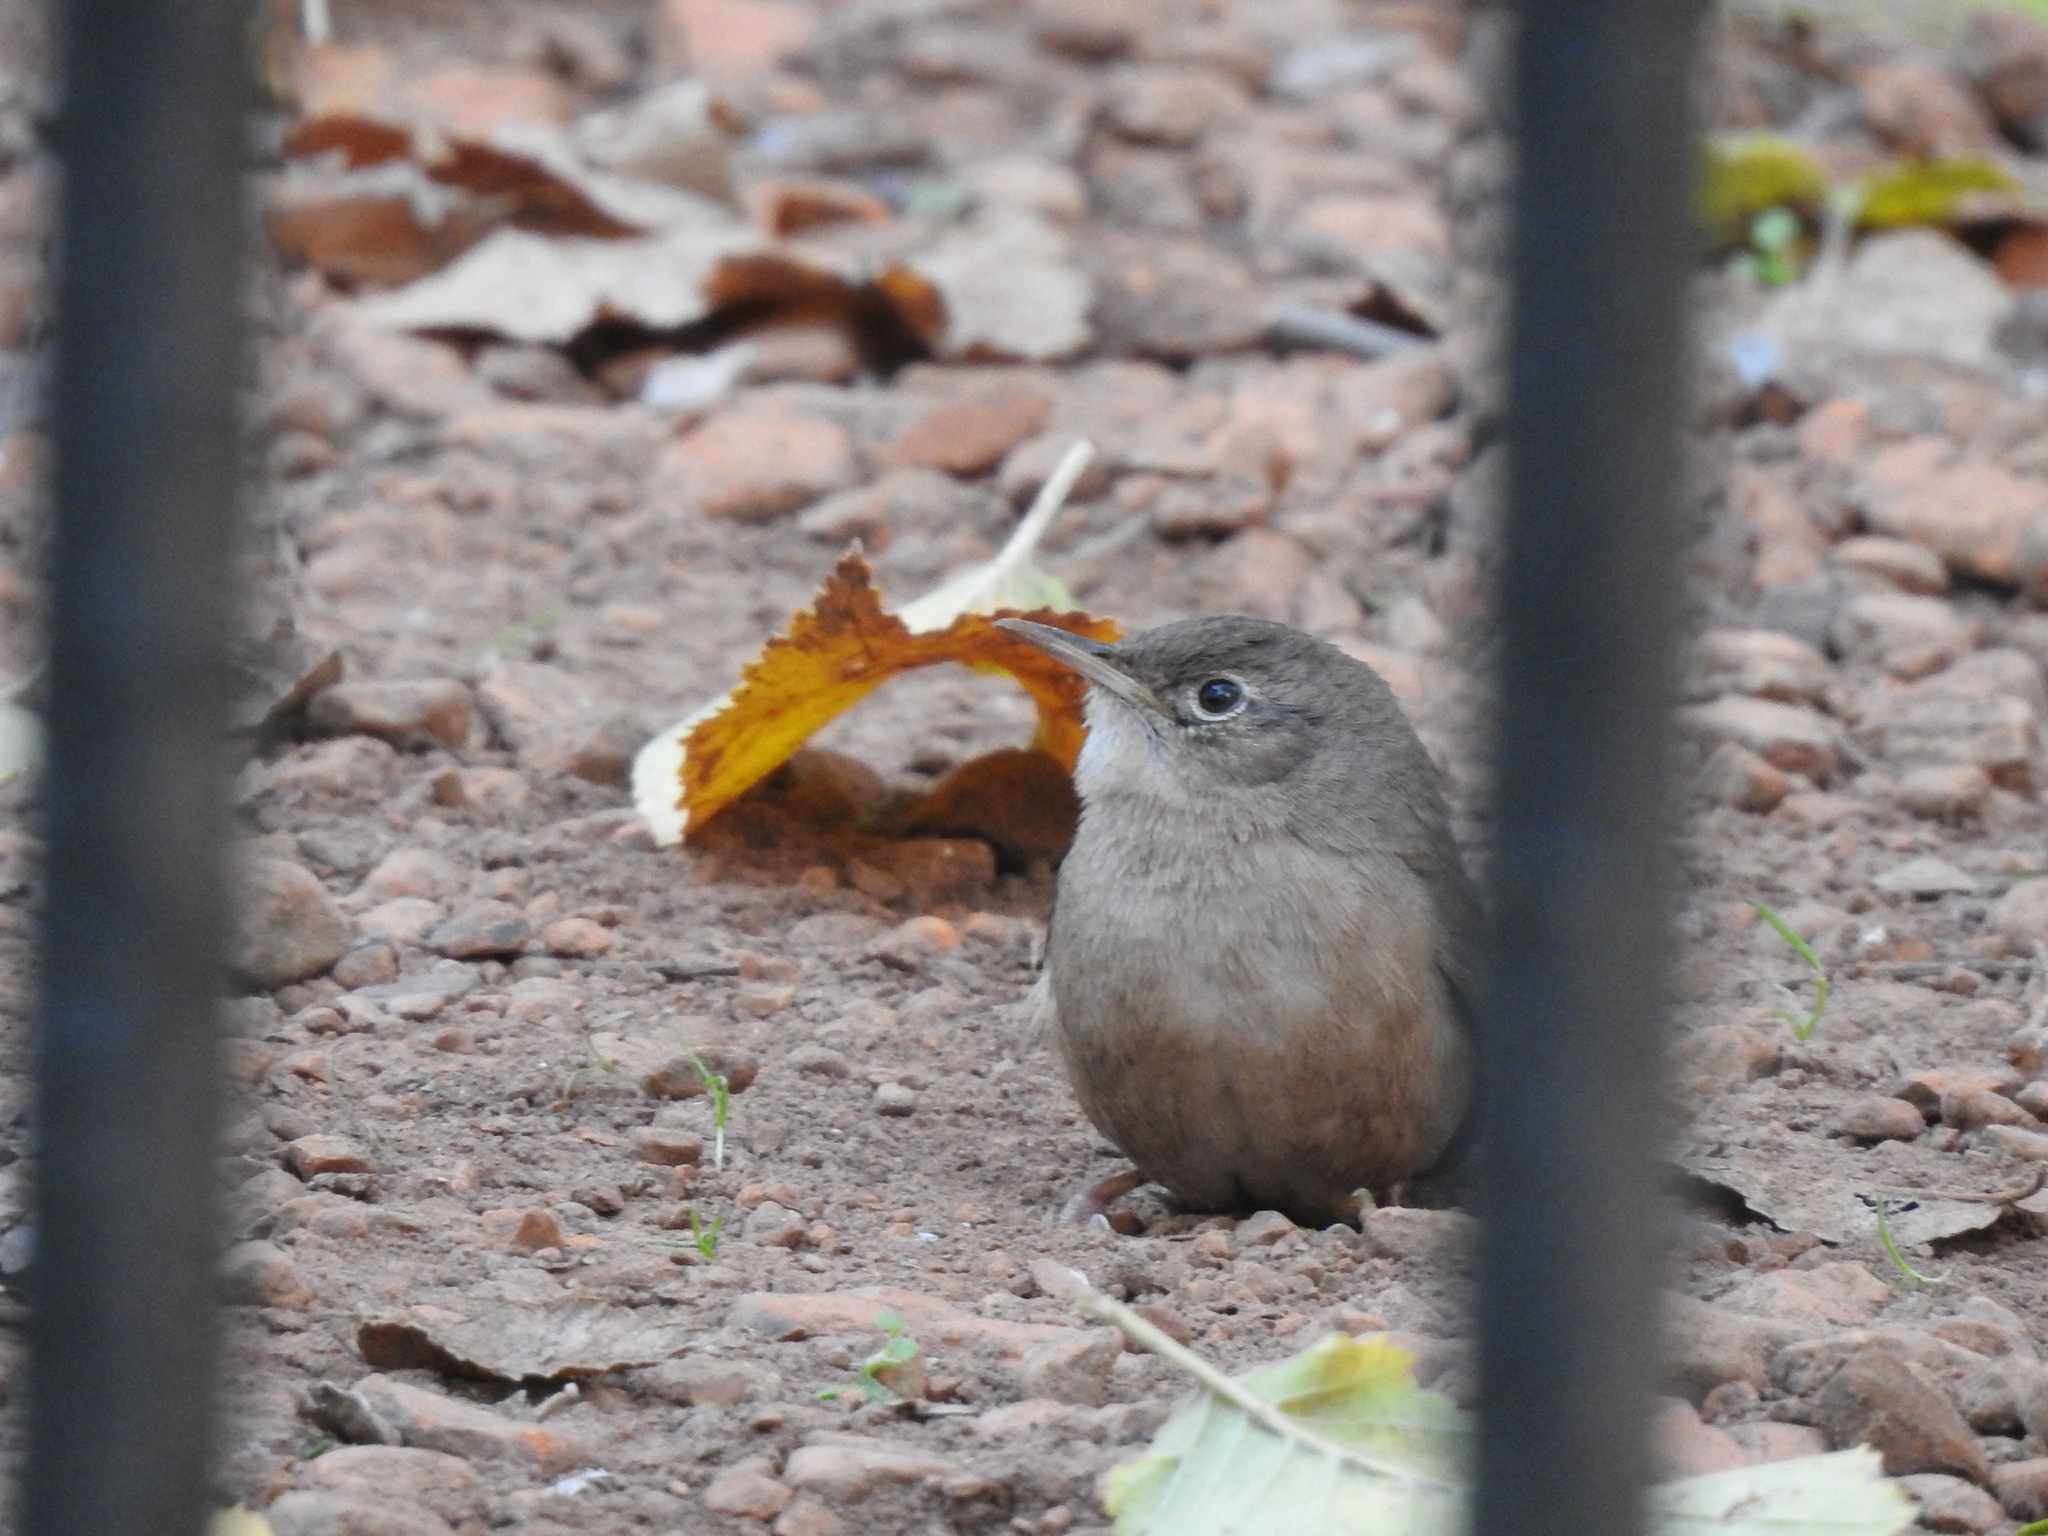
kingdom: Animalia
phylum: Chordata
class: Aves
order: Passeriformes
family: Troglodytidae
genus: Troglodytes
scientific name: Troglodytes aedon
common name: House wren
